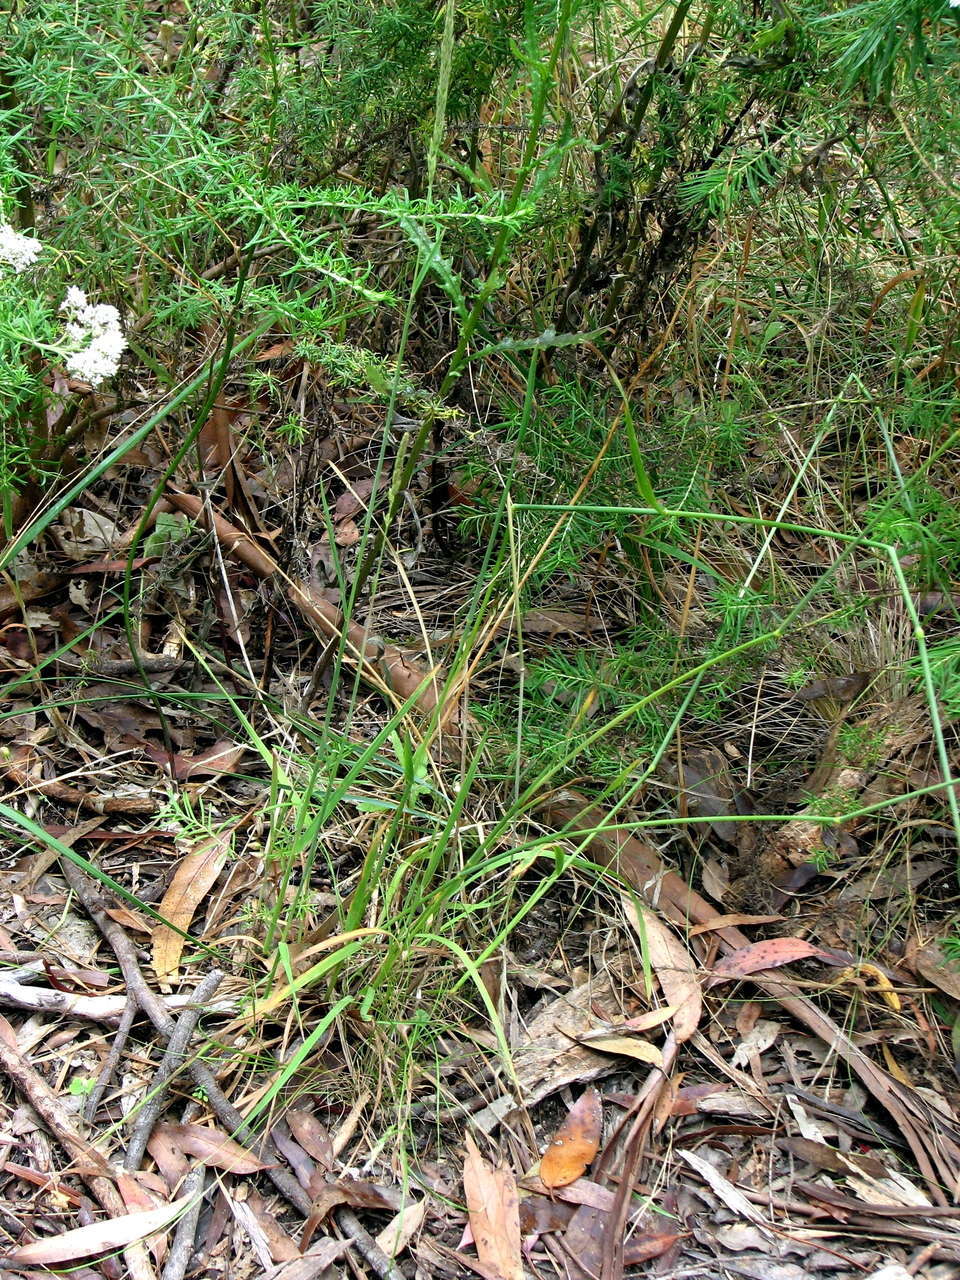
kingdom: Plantae
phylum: Tracheophyta
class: Liliopsida
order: Poales
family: Poaceae
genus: Calamagrostis
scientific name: Calamagrostis quadriseta
